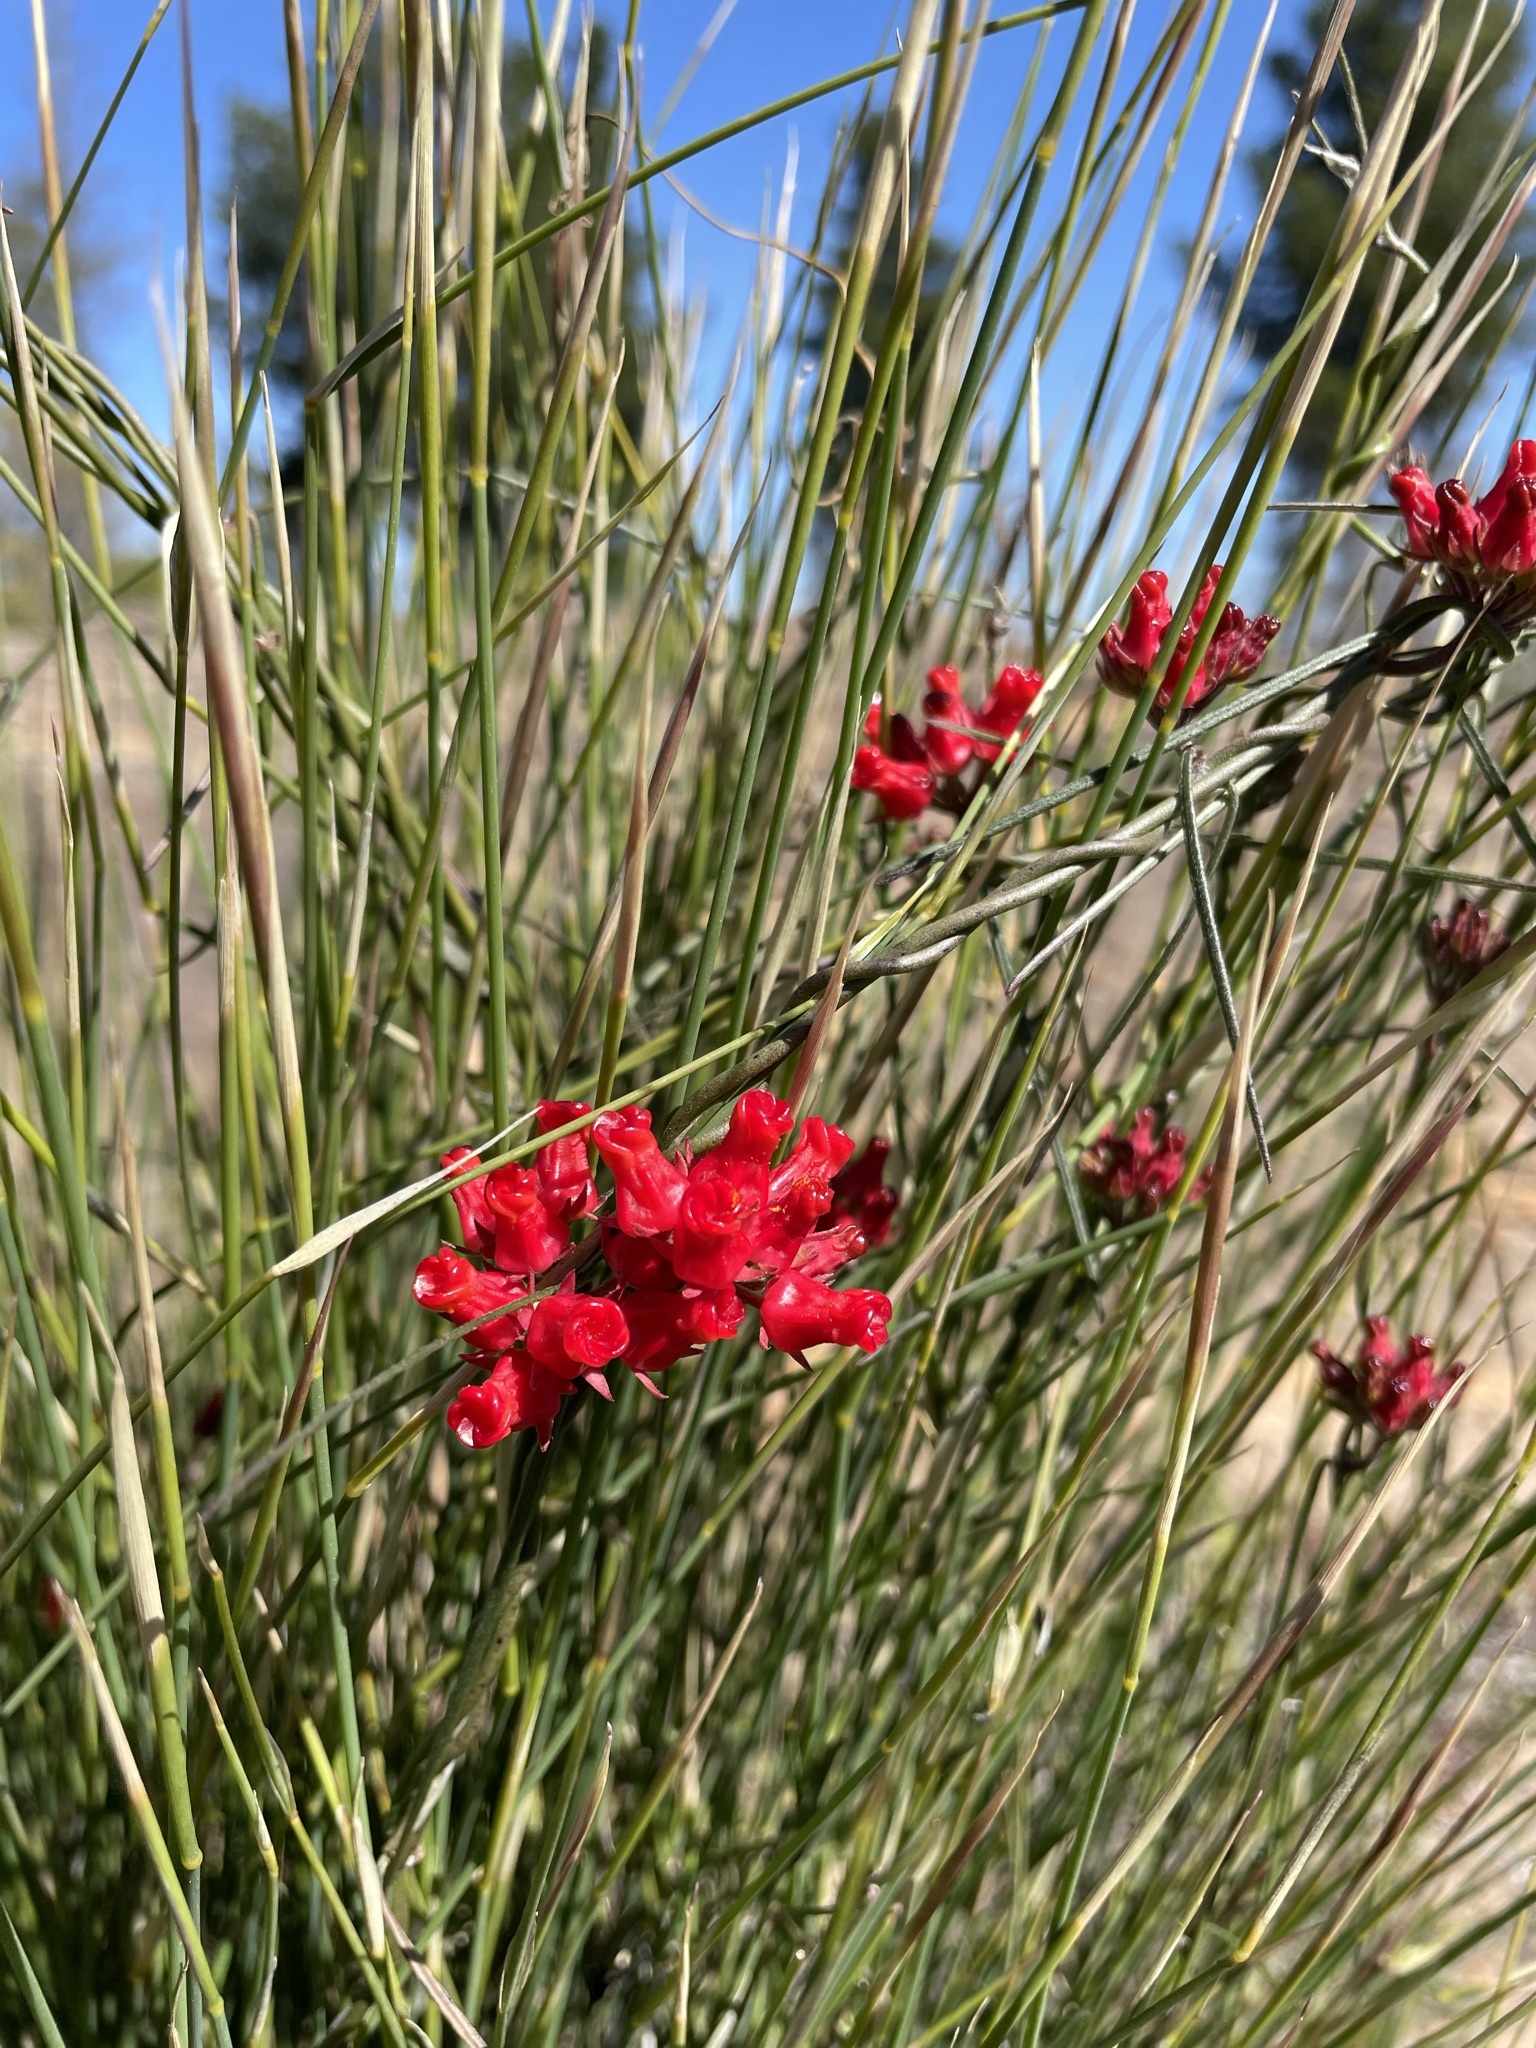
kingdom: Plantae
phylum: Tracheophyta
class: Magnoliopsida
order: Gentianales
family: Apocynaceae
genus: Microloma
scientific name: Microloma tenuifolium
